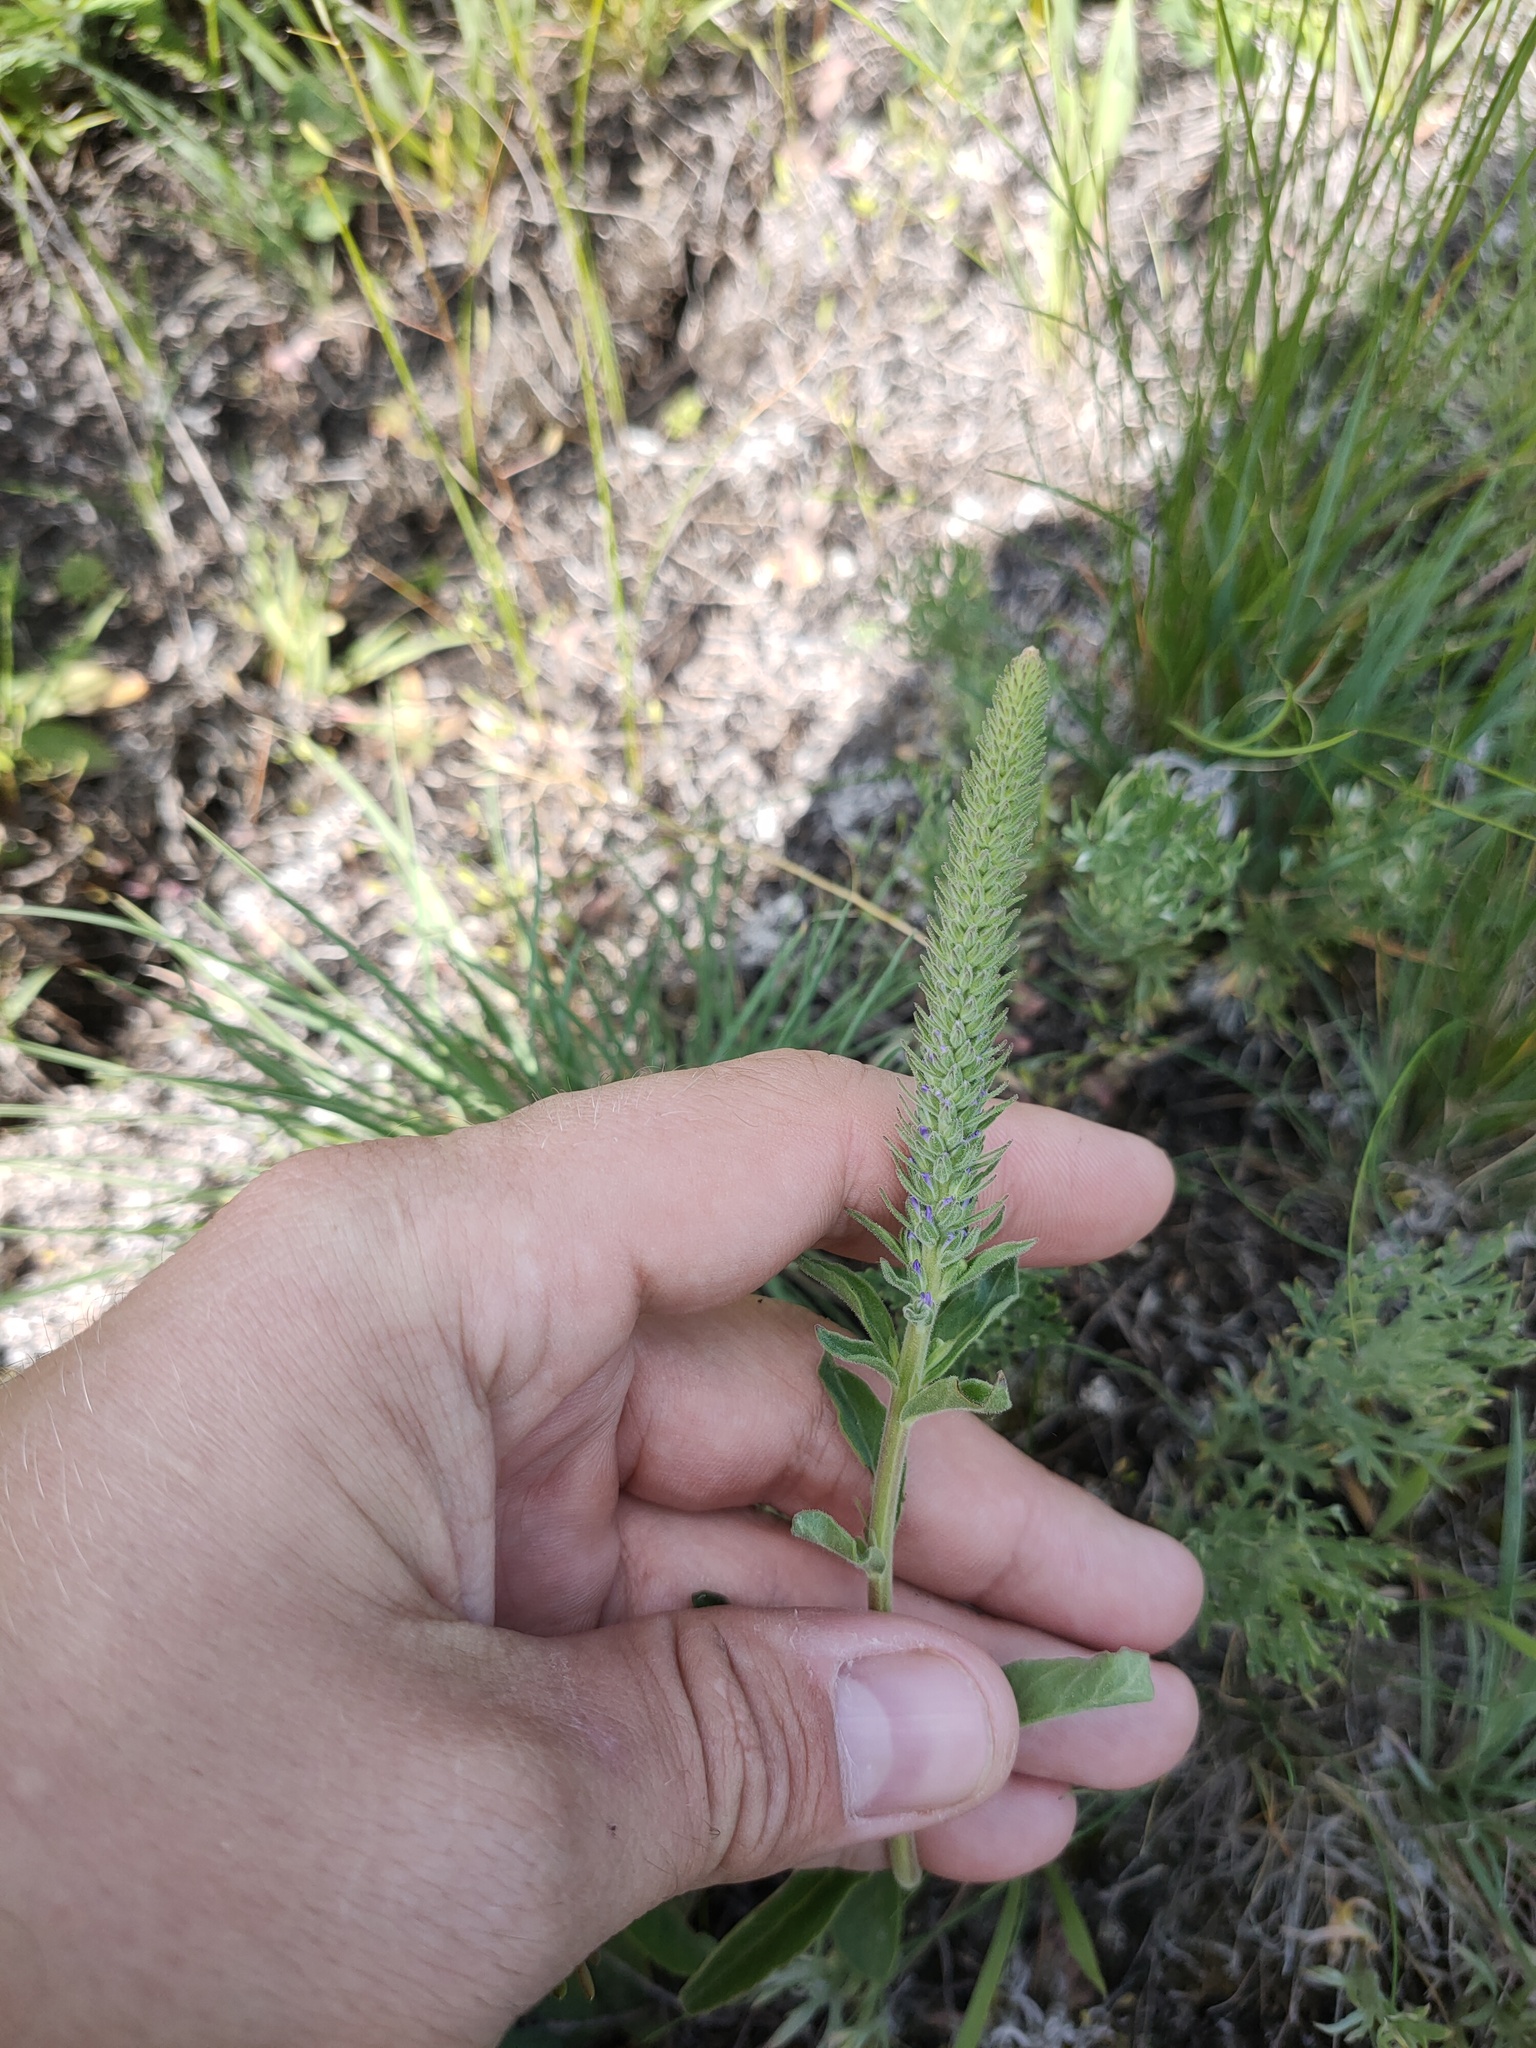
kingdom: Plantae
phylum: Tracheophyta
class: Magnoliopsida
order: Lamiales
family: Plantaginaceae
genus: Veronica
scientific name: Veronica spicata
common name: Spiked speedwell
